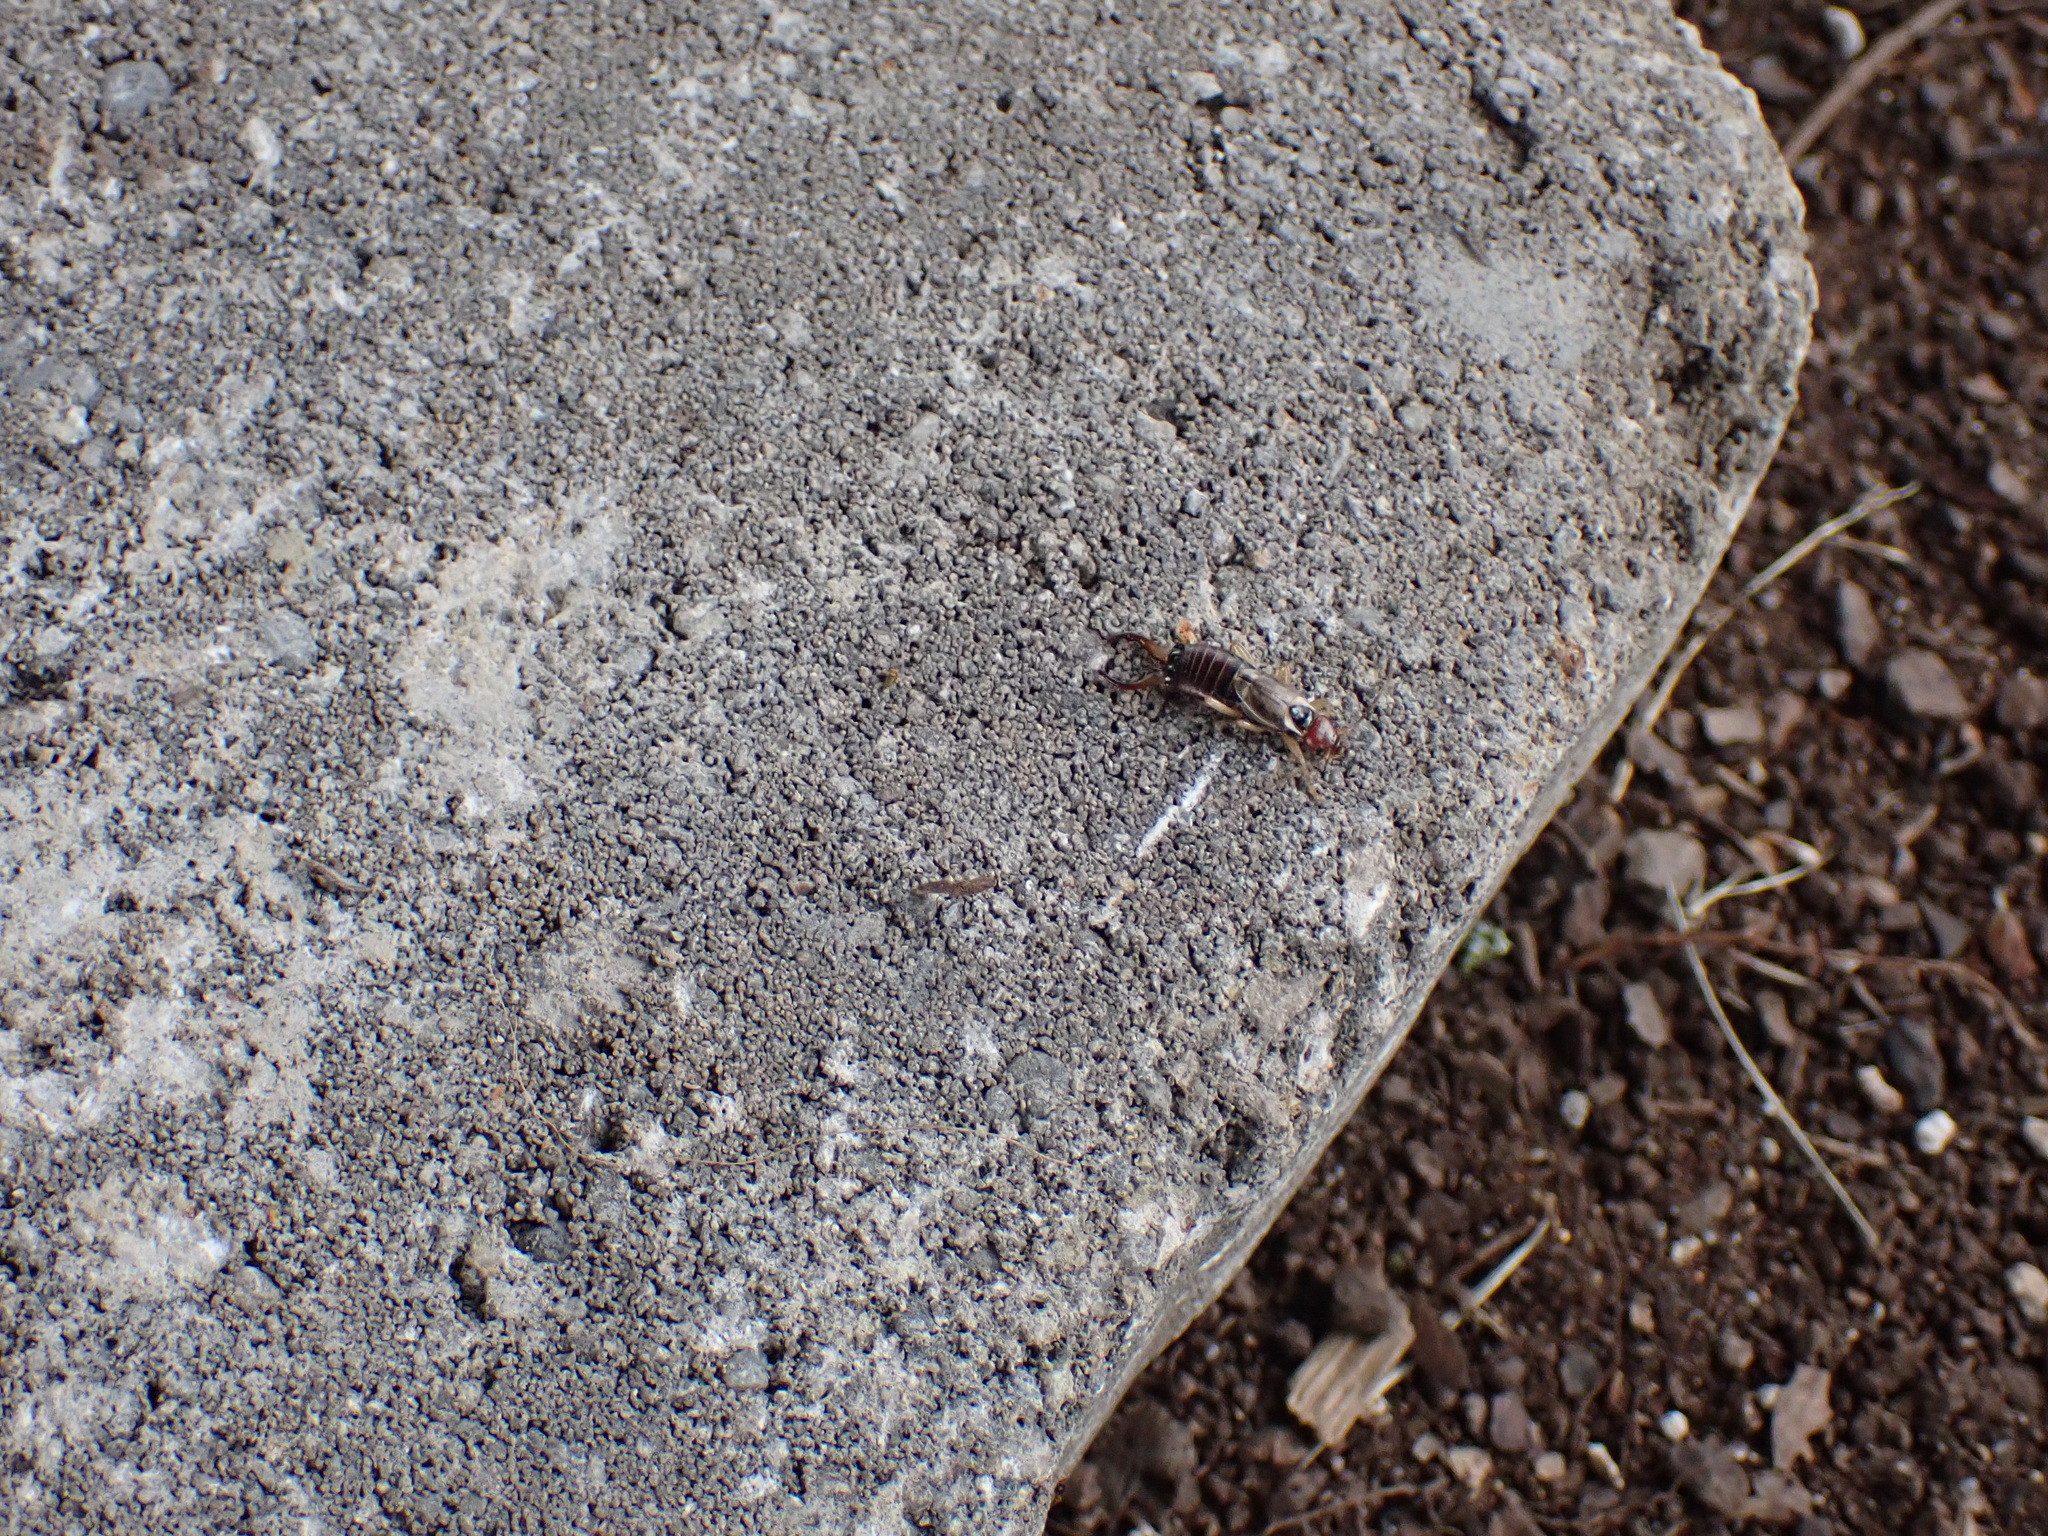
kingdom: Animalia
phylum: Arthropoda
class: Insecta
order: Dermaptera
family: Forficulidae
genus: Forficula
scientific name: Forficula
